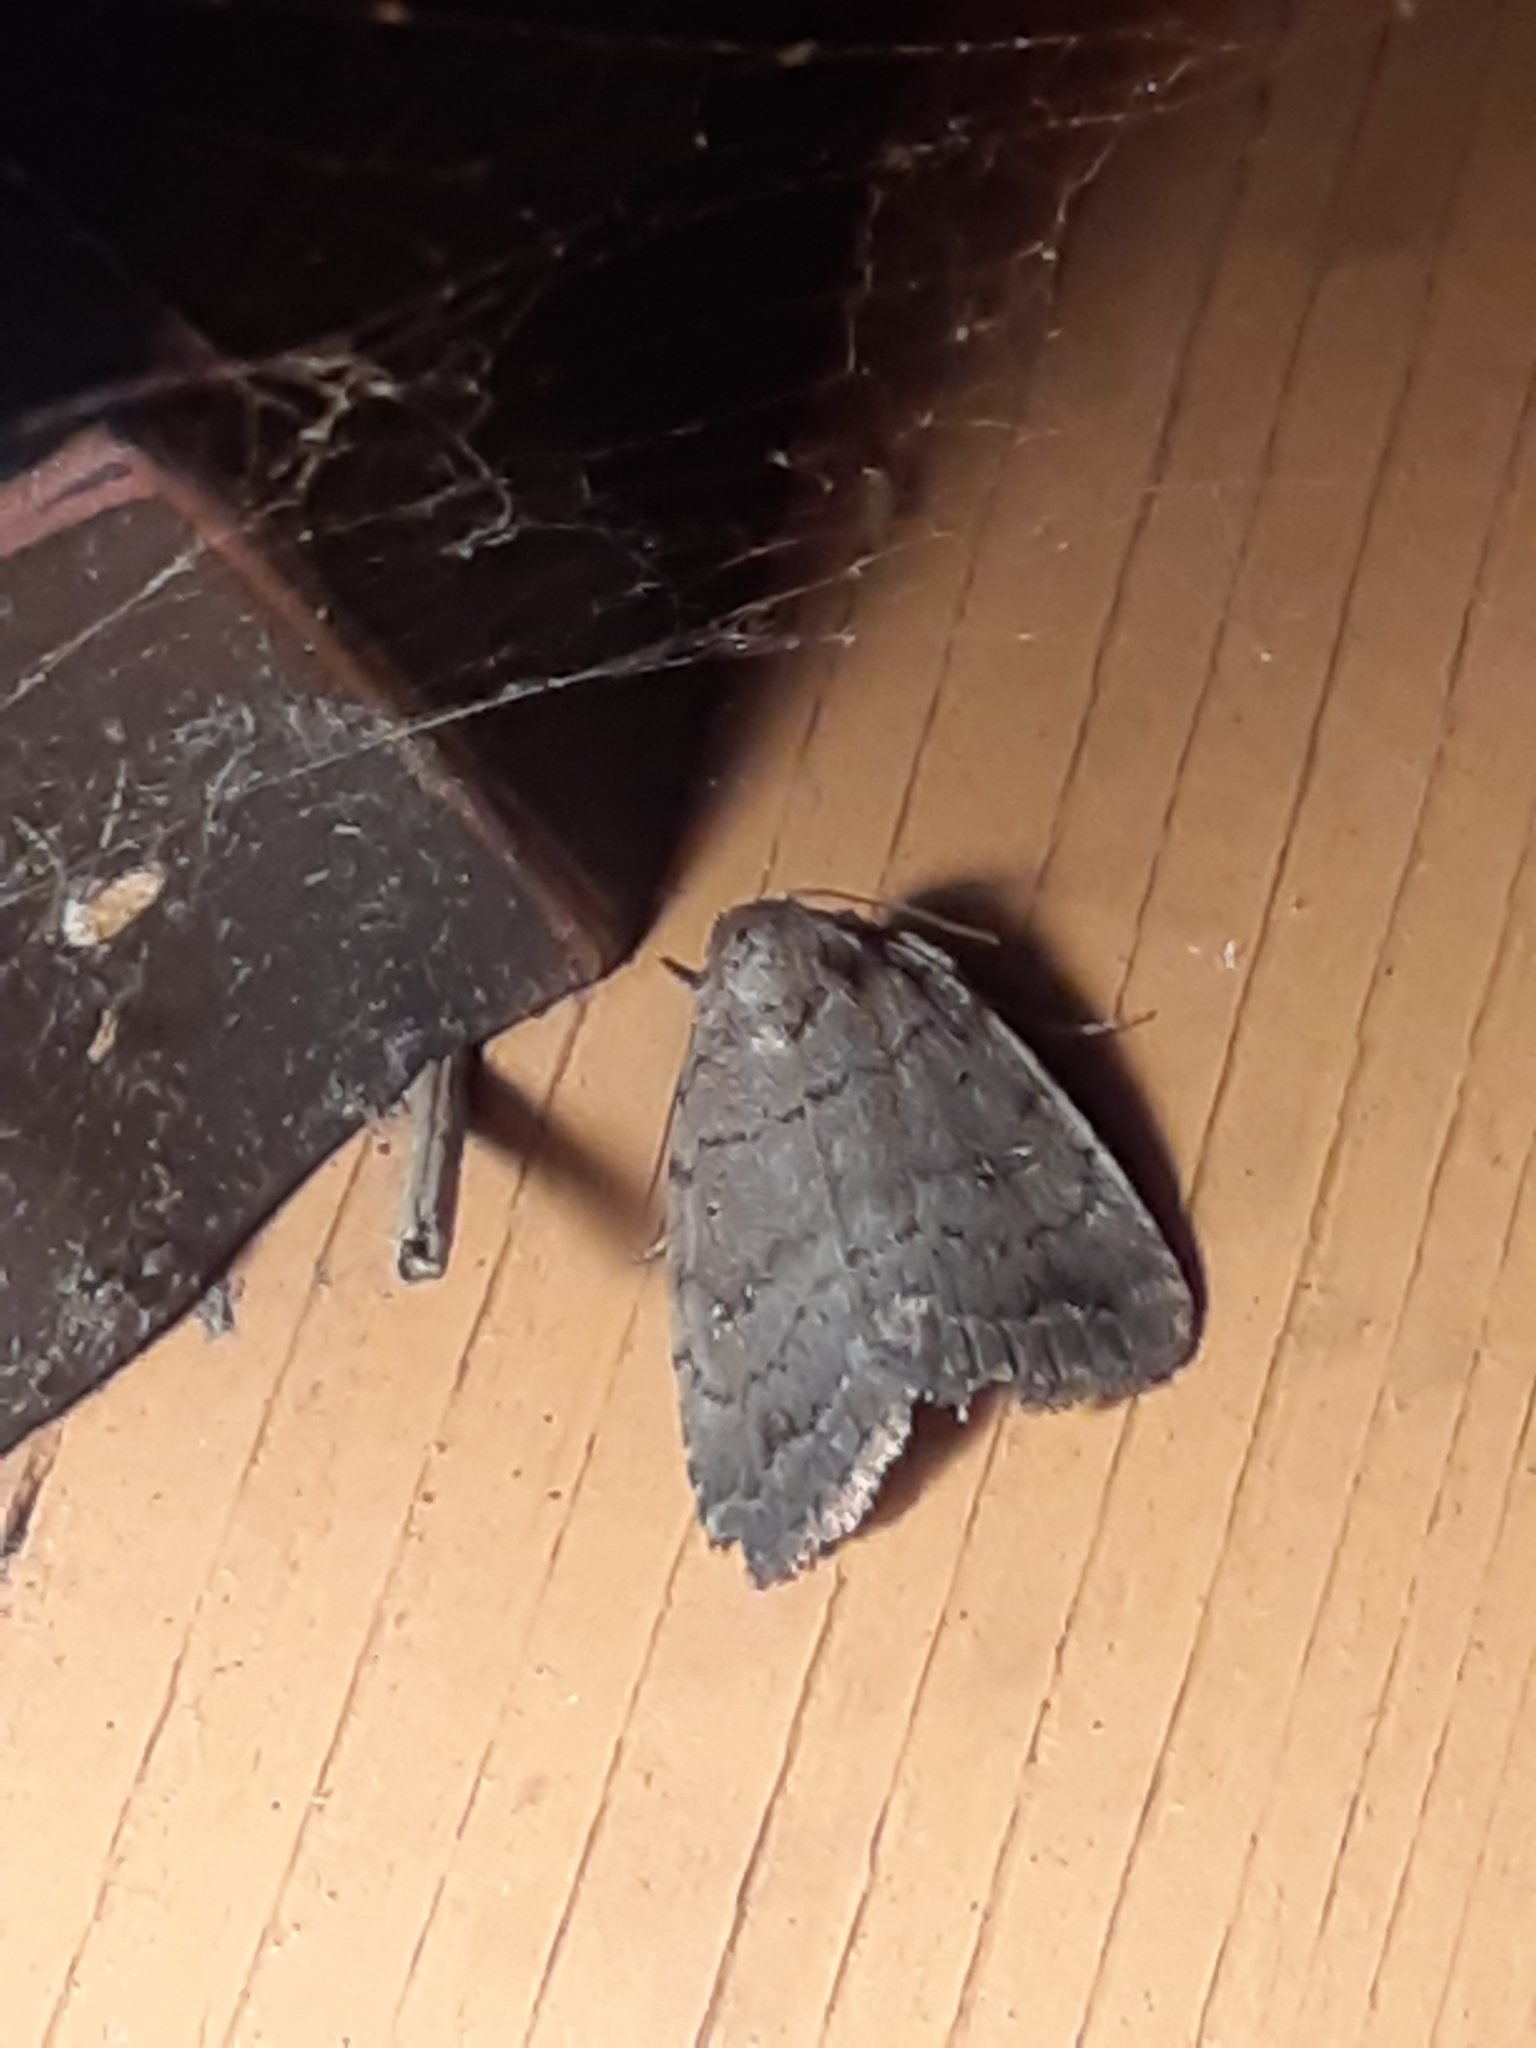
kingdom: Animalia
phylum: Arthropoda
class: Insecta
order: Lepidoptera
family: Noctuidae
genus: Athetis
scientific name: Athetis tarda
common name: Slowpoke moth
